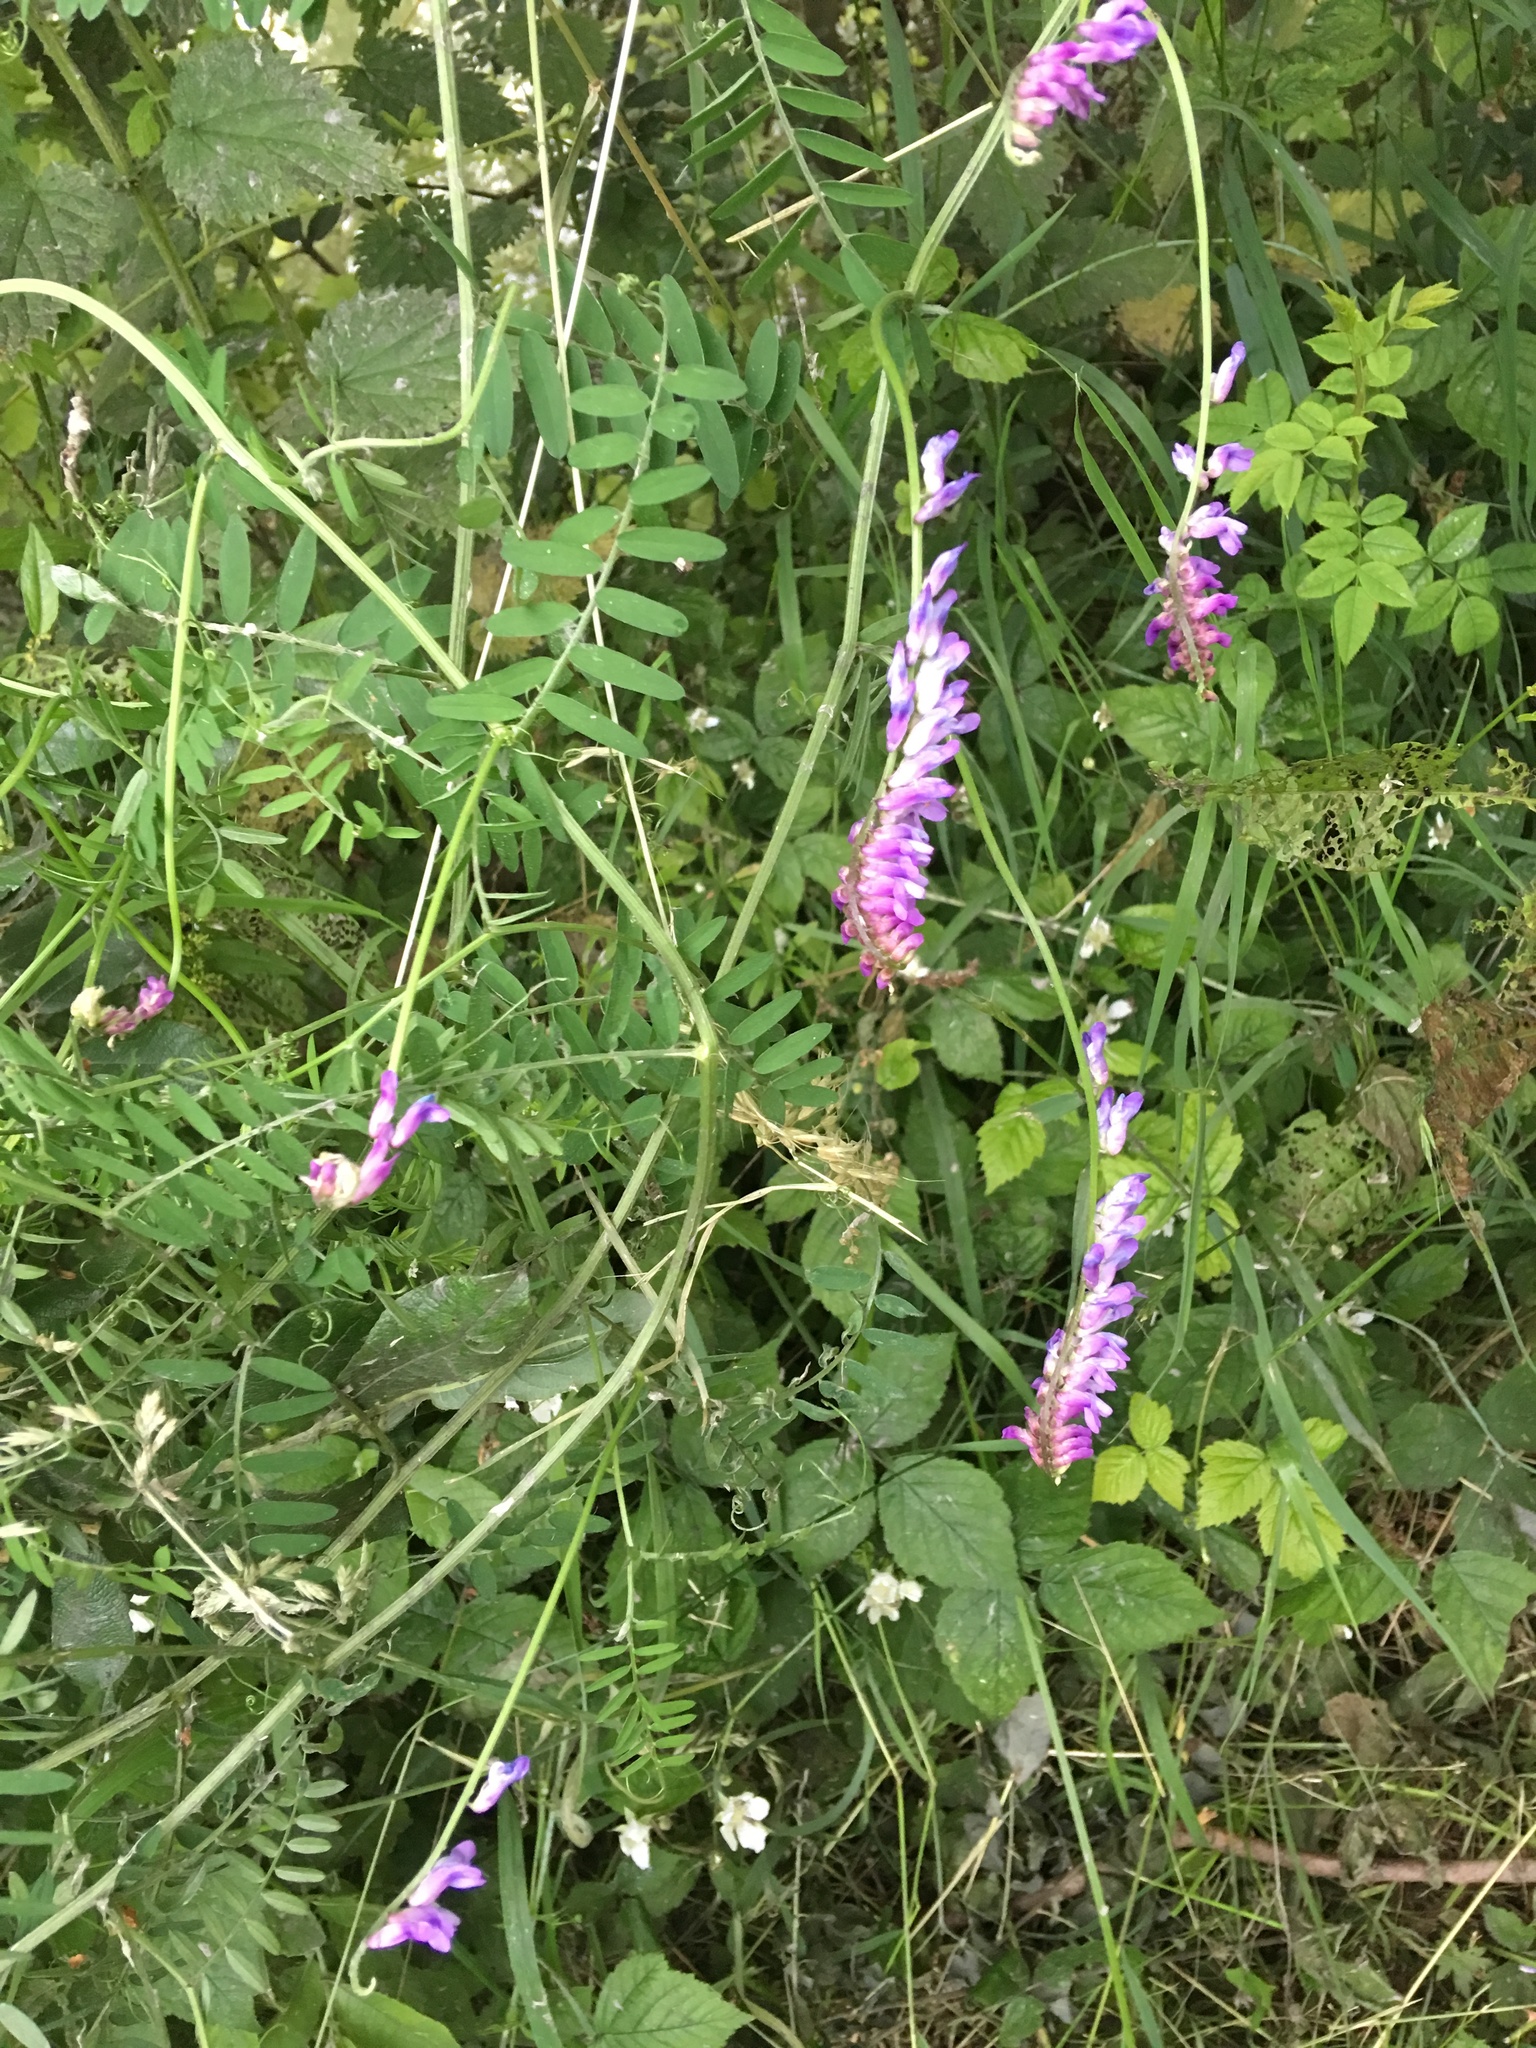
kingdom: Plantae
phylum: Tracheophyta
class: Magnoliopsida
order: Fabales
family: Fabaceae
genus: Vicia
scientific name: Vicia cracca
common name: Bird vetch
